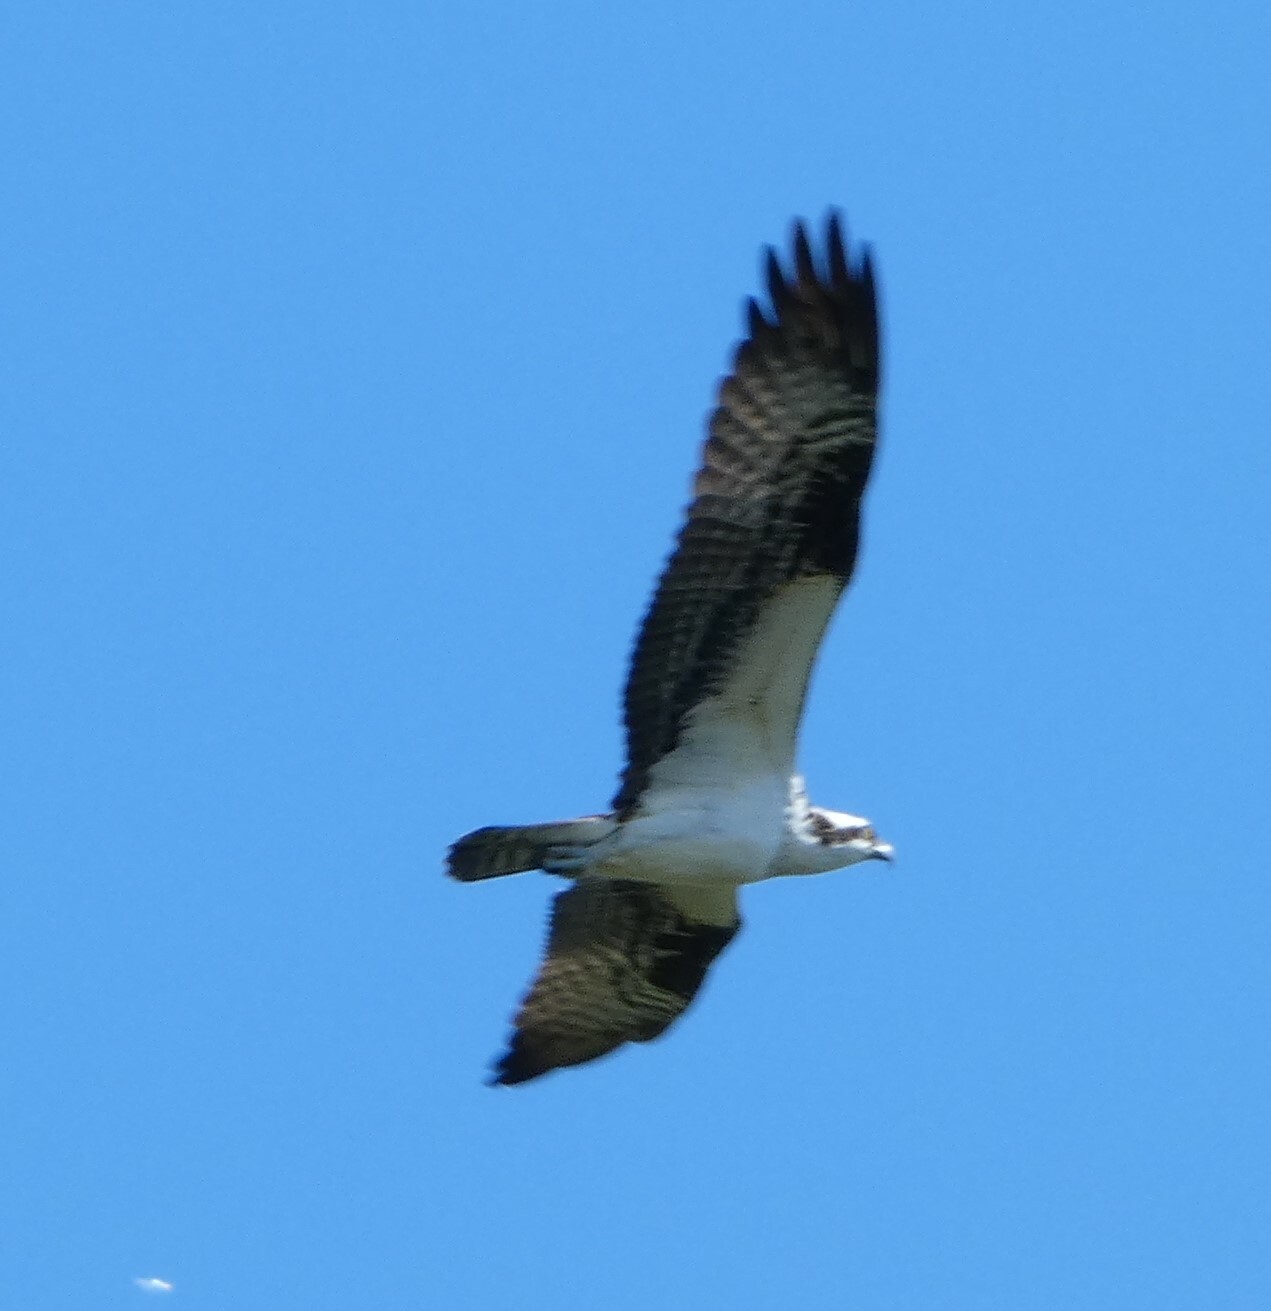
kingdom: Animalia
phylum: Chordata
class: Aves
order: Accipitriformes
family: Pandionidae
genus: Pandion
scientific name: Pandion haliaetus
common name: Osprey
